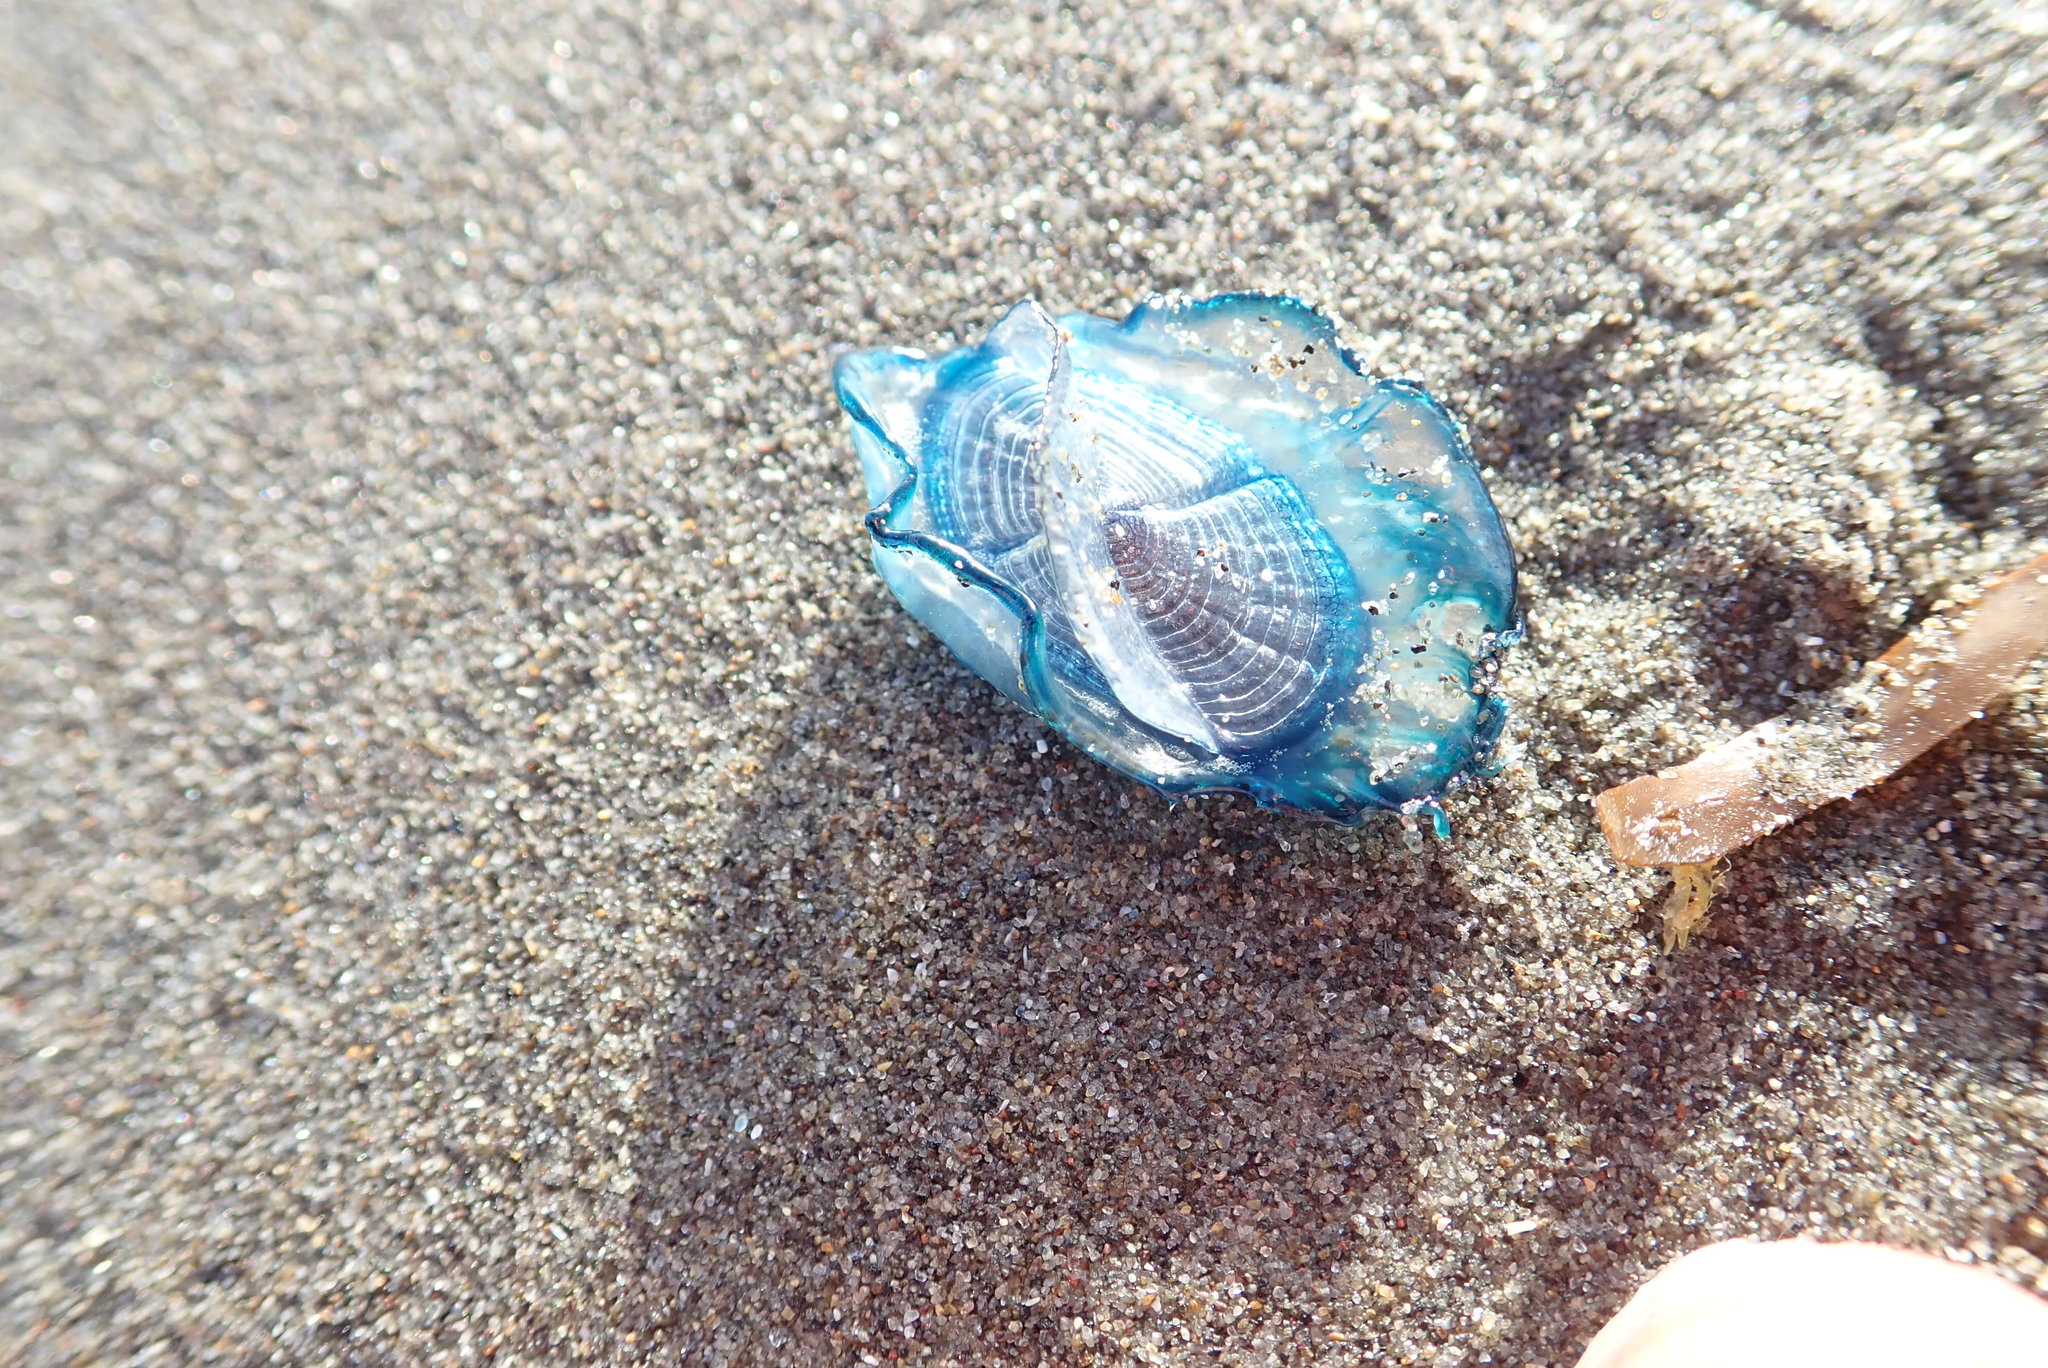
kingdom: Animalia
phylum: Cnidaria
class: Hydrozoa
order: Anthoathecata
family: Porpitidae
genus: Velella
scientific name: Velella velella
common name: By-the-wind-sailor
